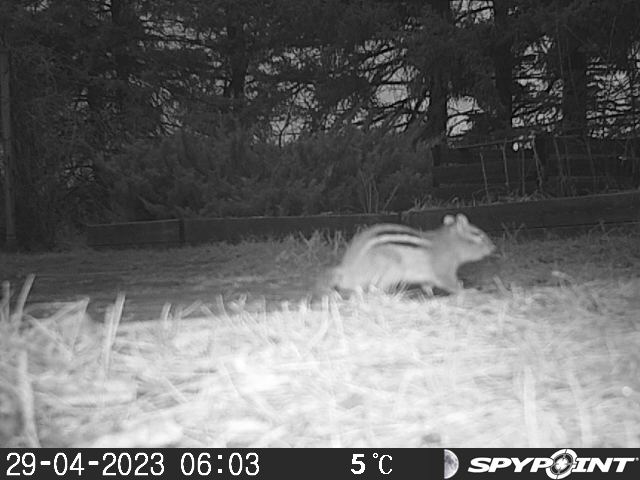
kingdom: Animalia
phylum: Chordata
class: Mammalia
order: Rodentia
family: Sciuridae
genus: Tamias
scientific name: Tamias striatus
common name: Eastern chipmunk
